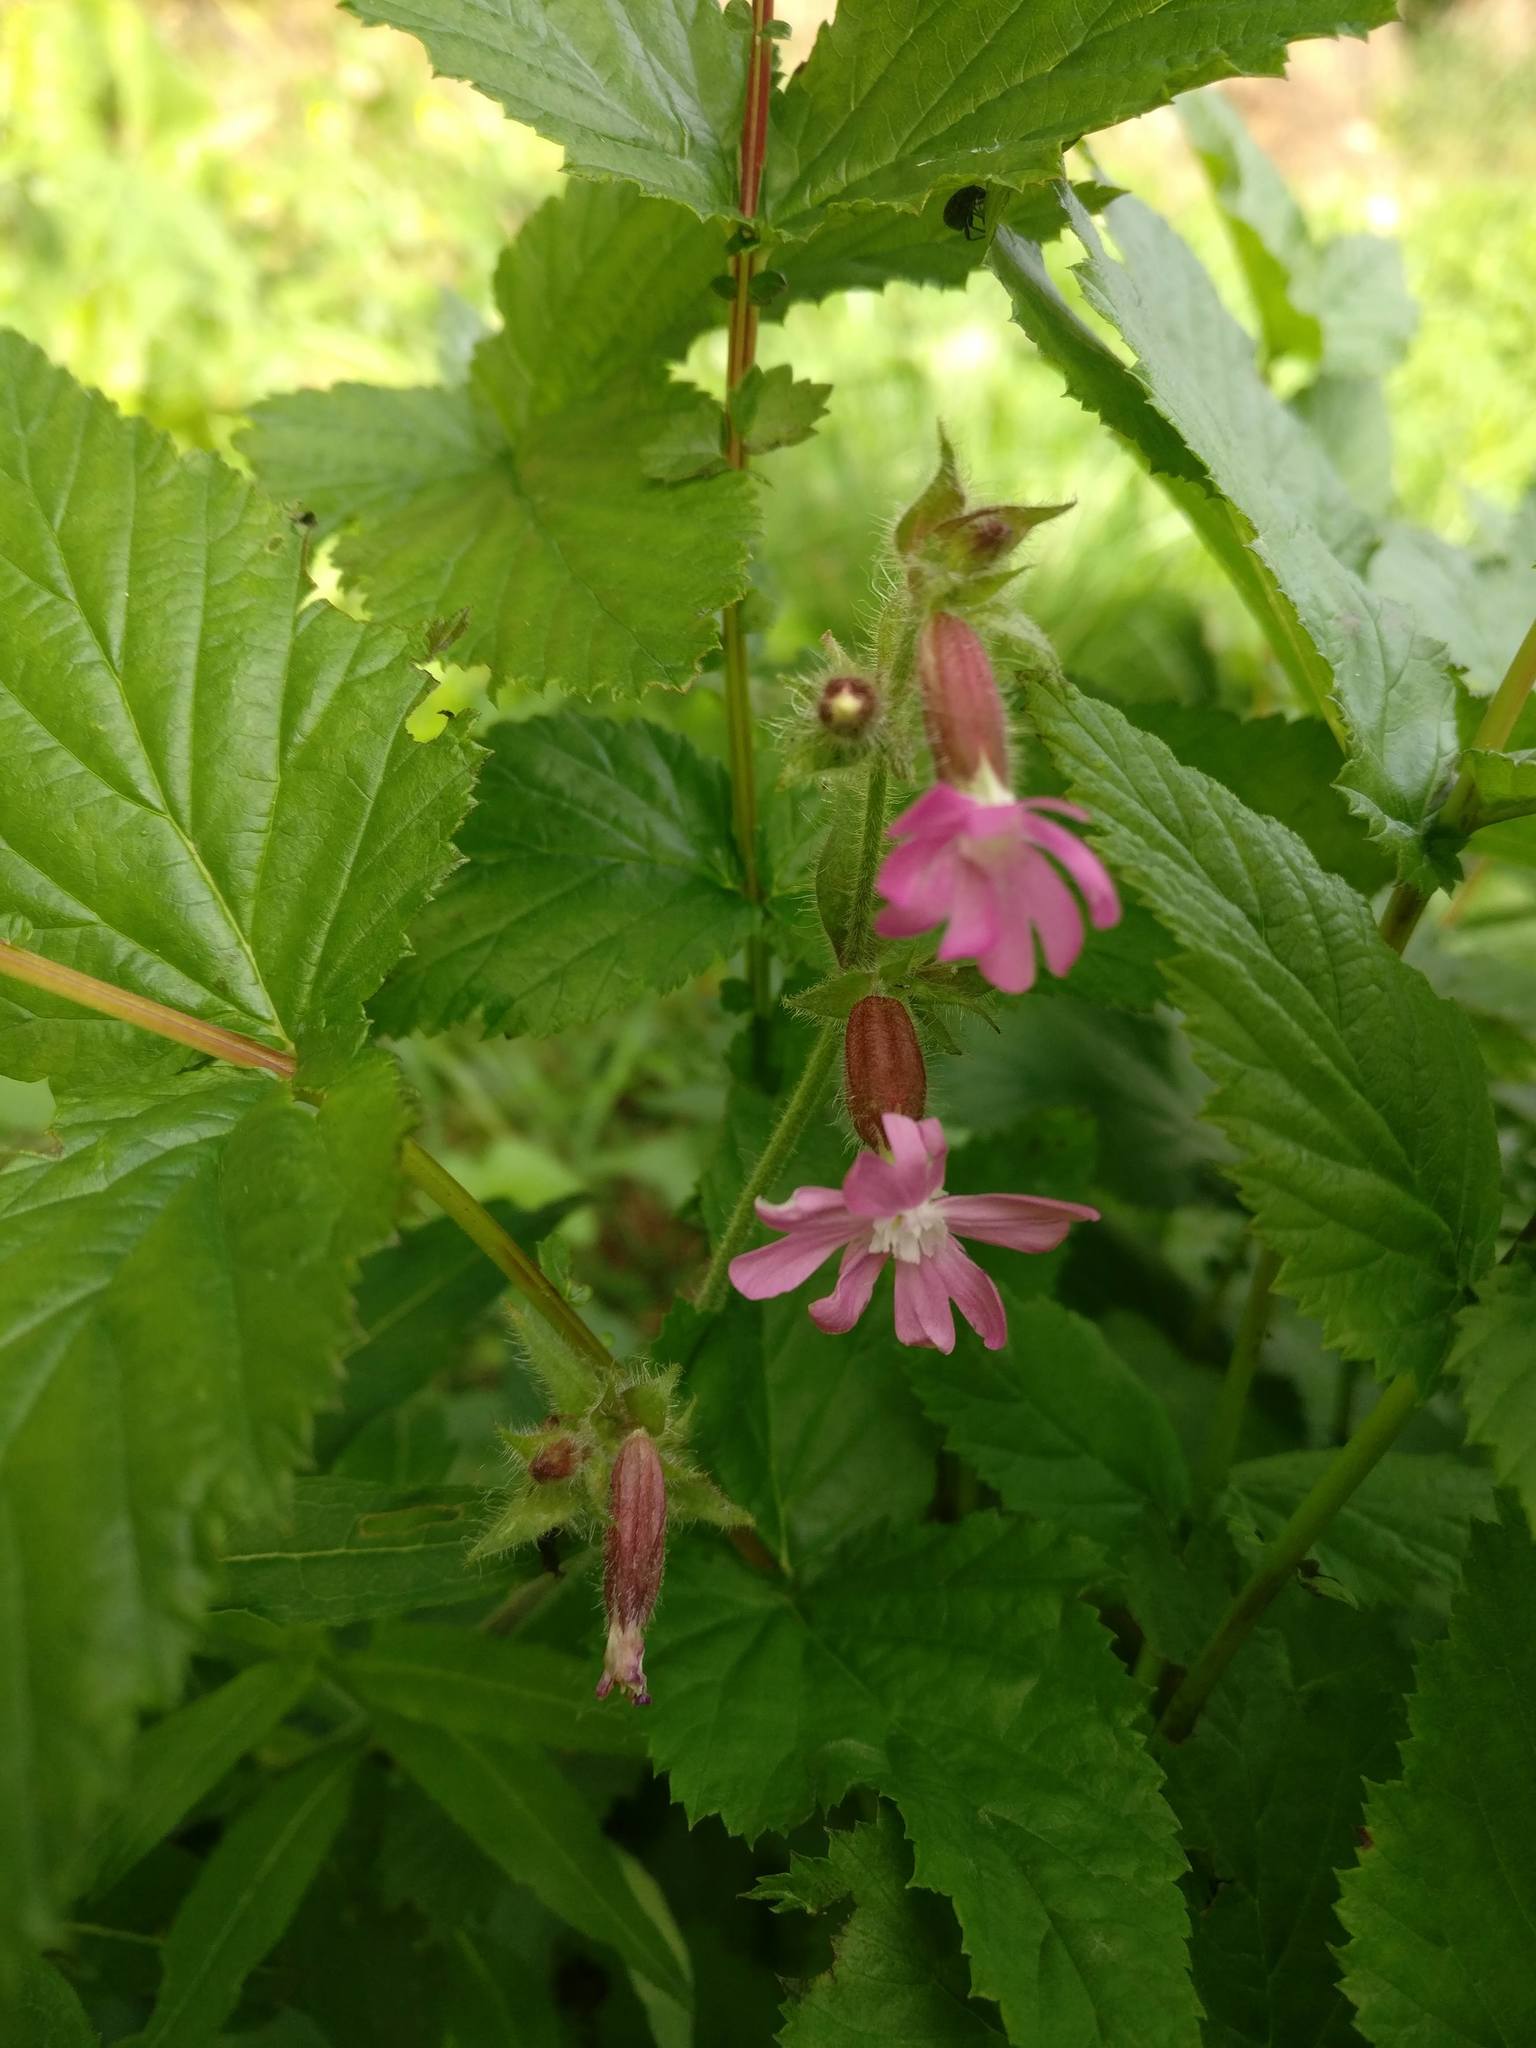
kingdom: Plantae
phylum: Tracheophyta
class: Magnoliopsida
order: Caryophyllales
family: Caryophyllaceae
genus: Silene
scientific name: Silene dioica
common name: Red campion
